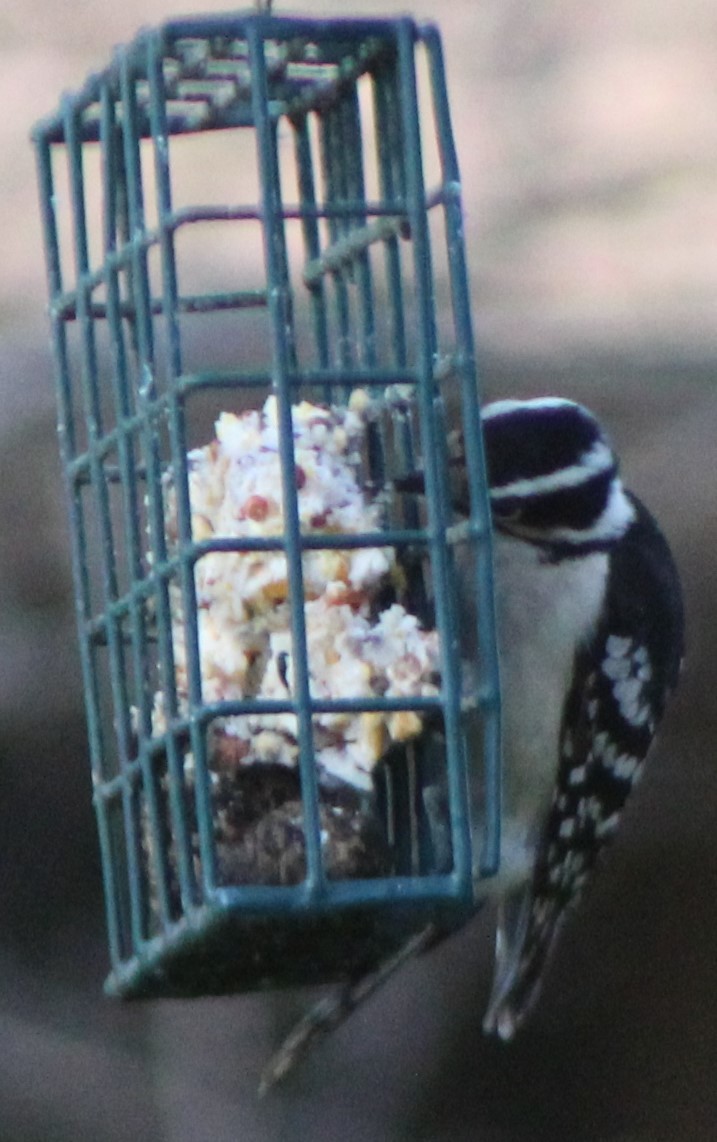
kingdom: Animalia
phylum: Chordata
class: Aves
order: Piciformes
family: Picidae
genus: Dryobates
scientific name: Dryobates pubescens
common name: Downy woodpecker
